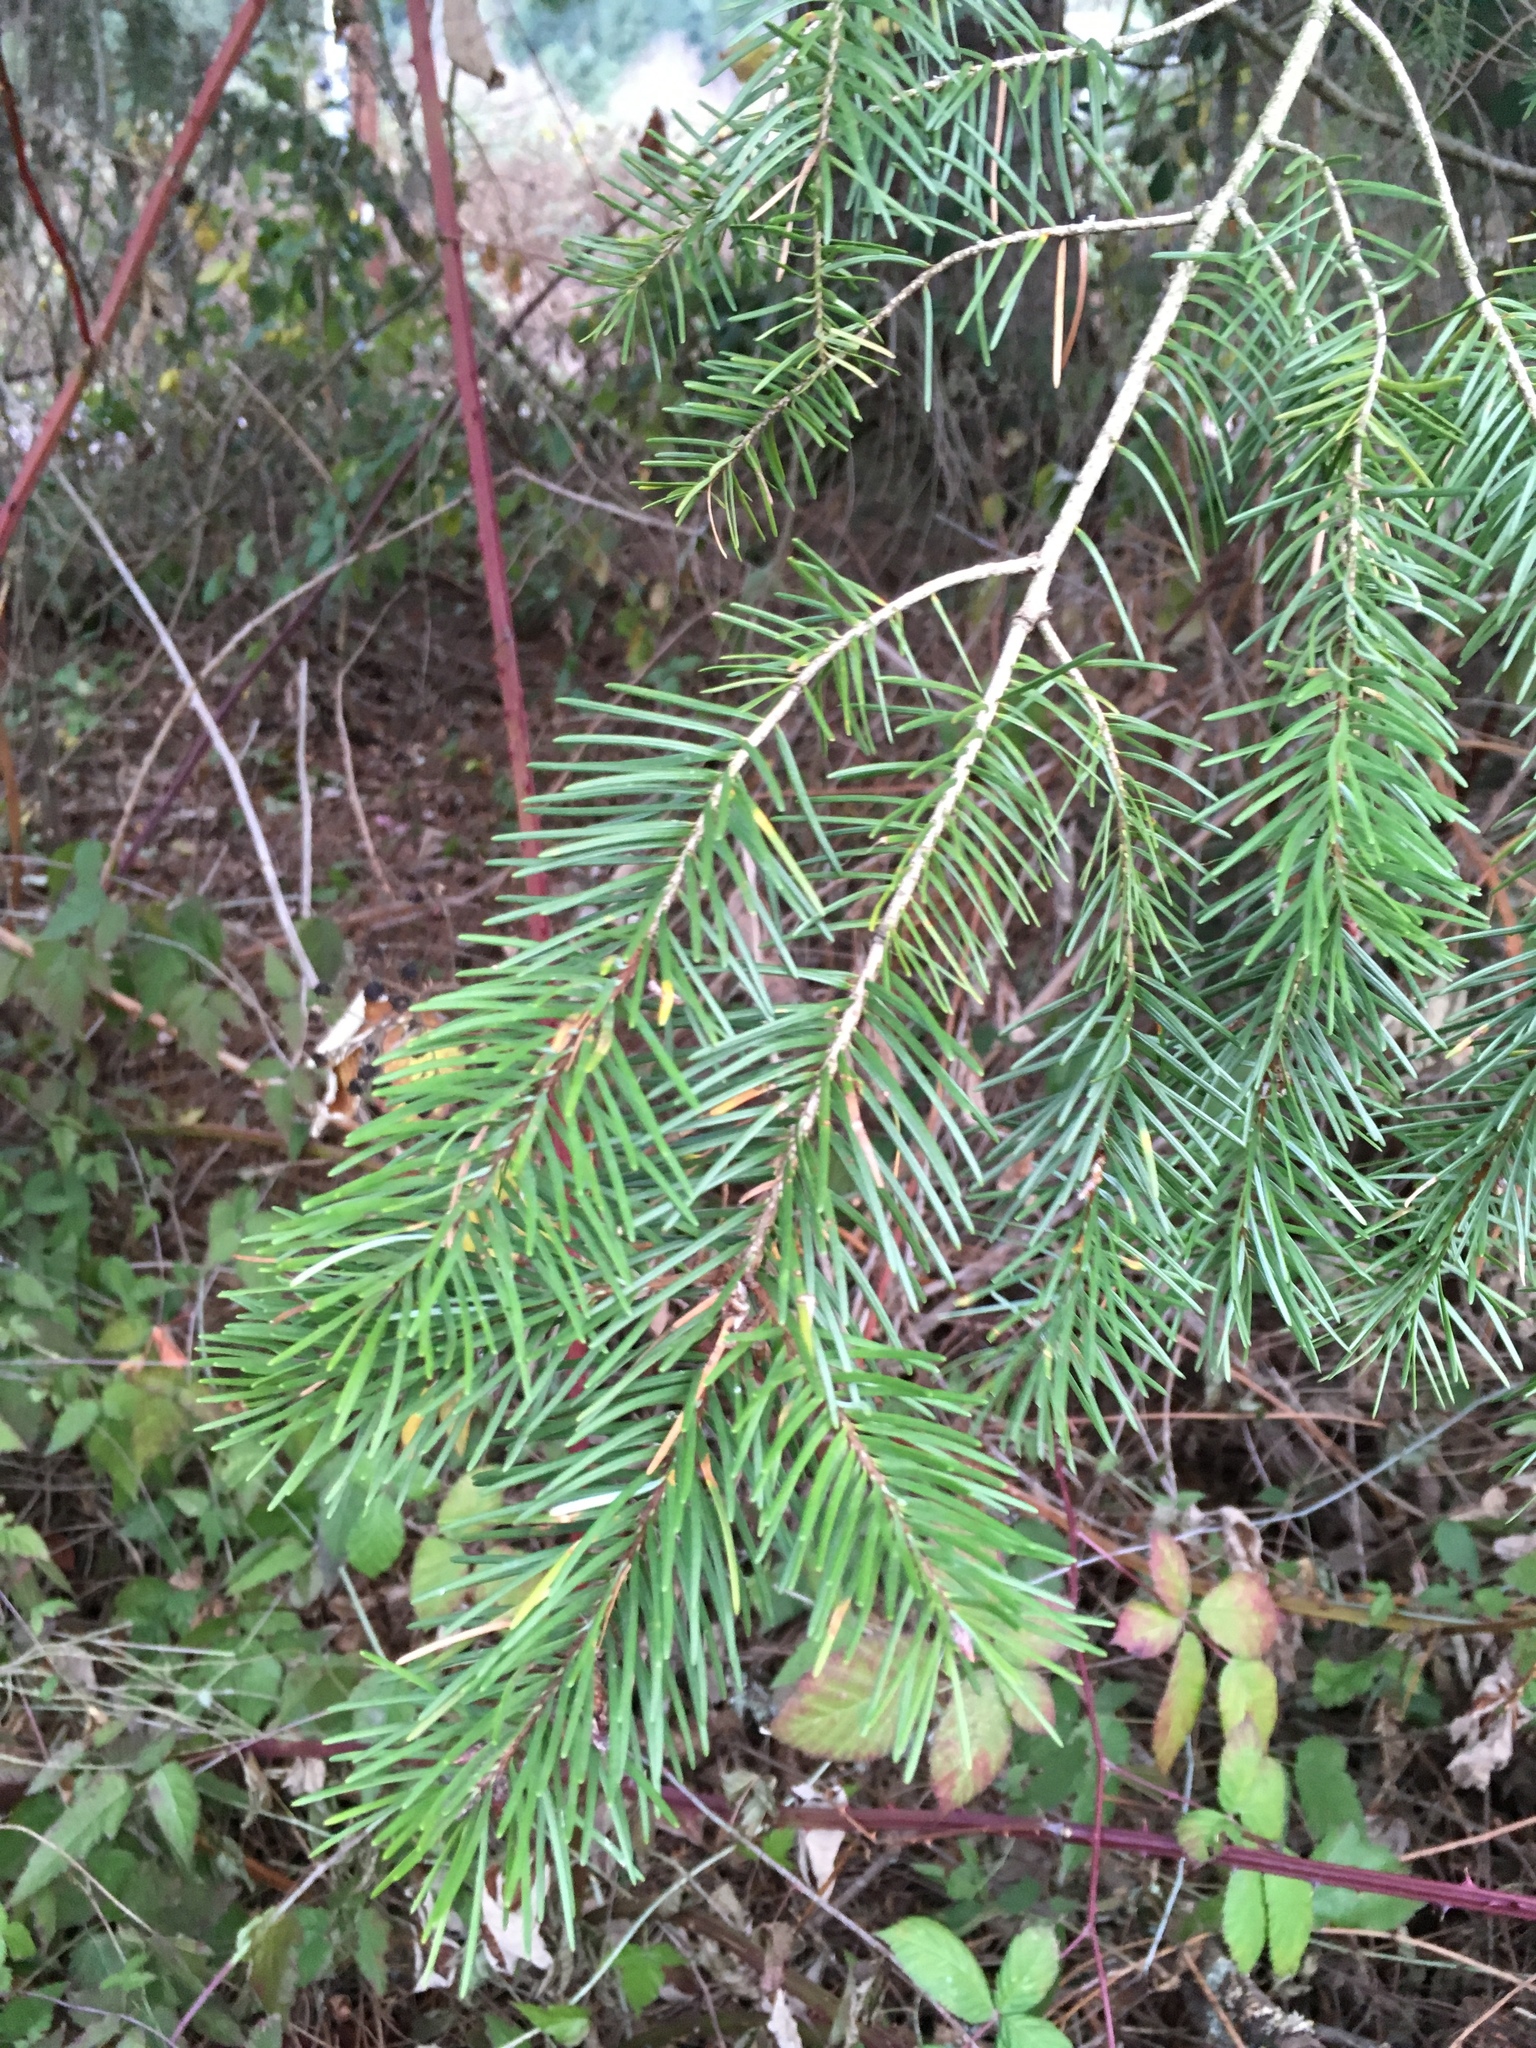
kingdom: Plantae
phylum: Tracheophyta
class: Pinopsida
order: Pinales
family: Pinaceae
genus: Pseudotsuga
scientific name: Pseudotsuga menziesii
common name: Douglas fir
